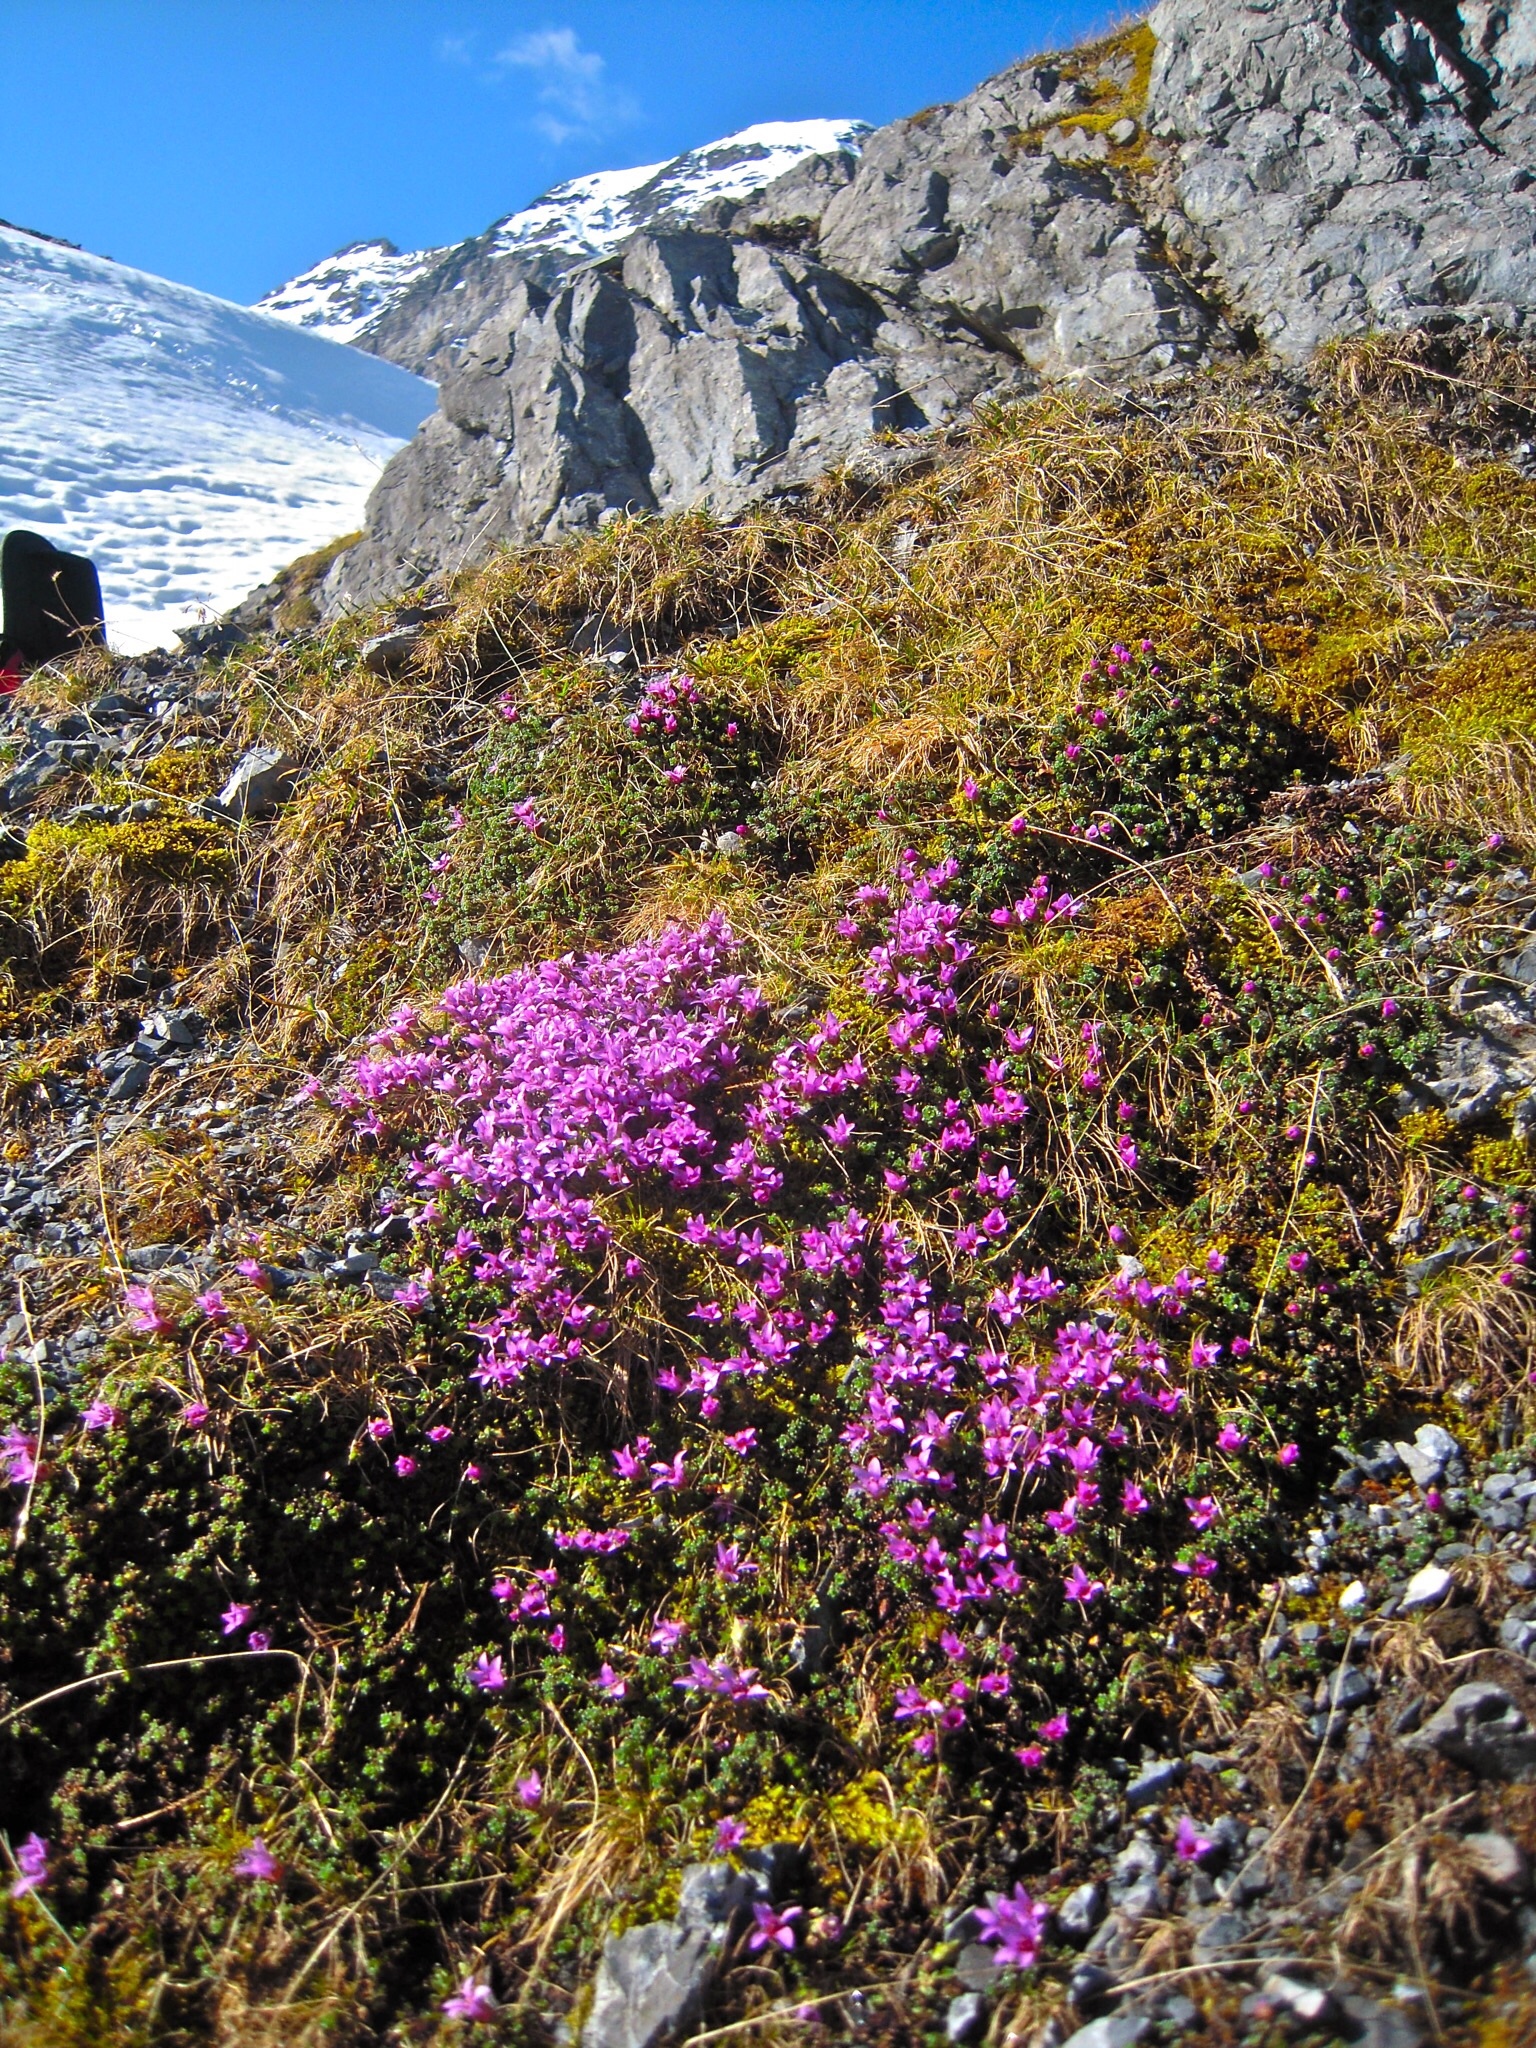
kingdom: Plantae
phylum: Tracheophyta
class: Magnoliopsida
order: Saxifragales
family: Saxifragaceae
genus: Saxifraga
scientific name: Saxifraga oppositifolia
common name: Purple saxifrage
